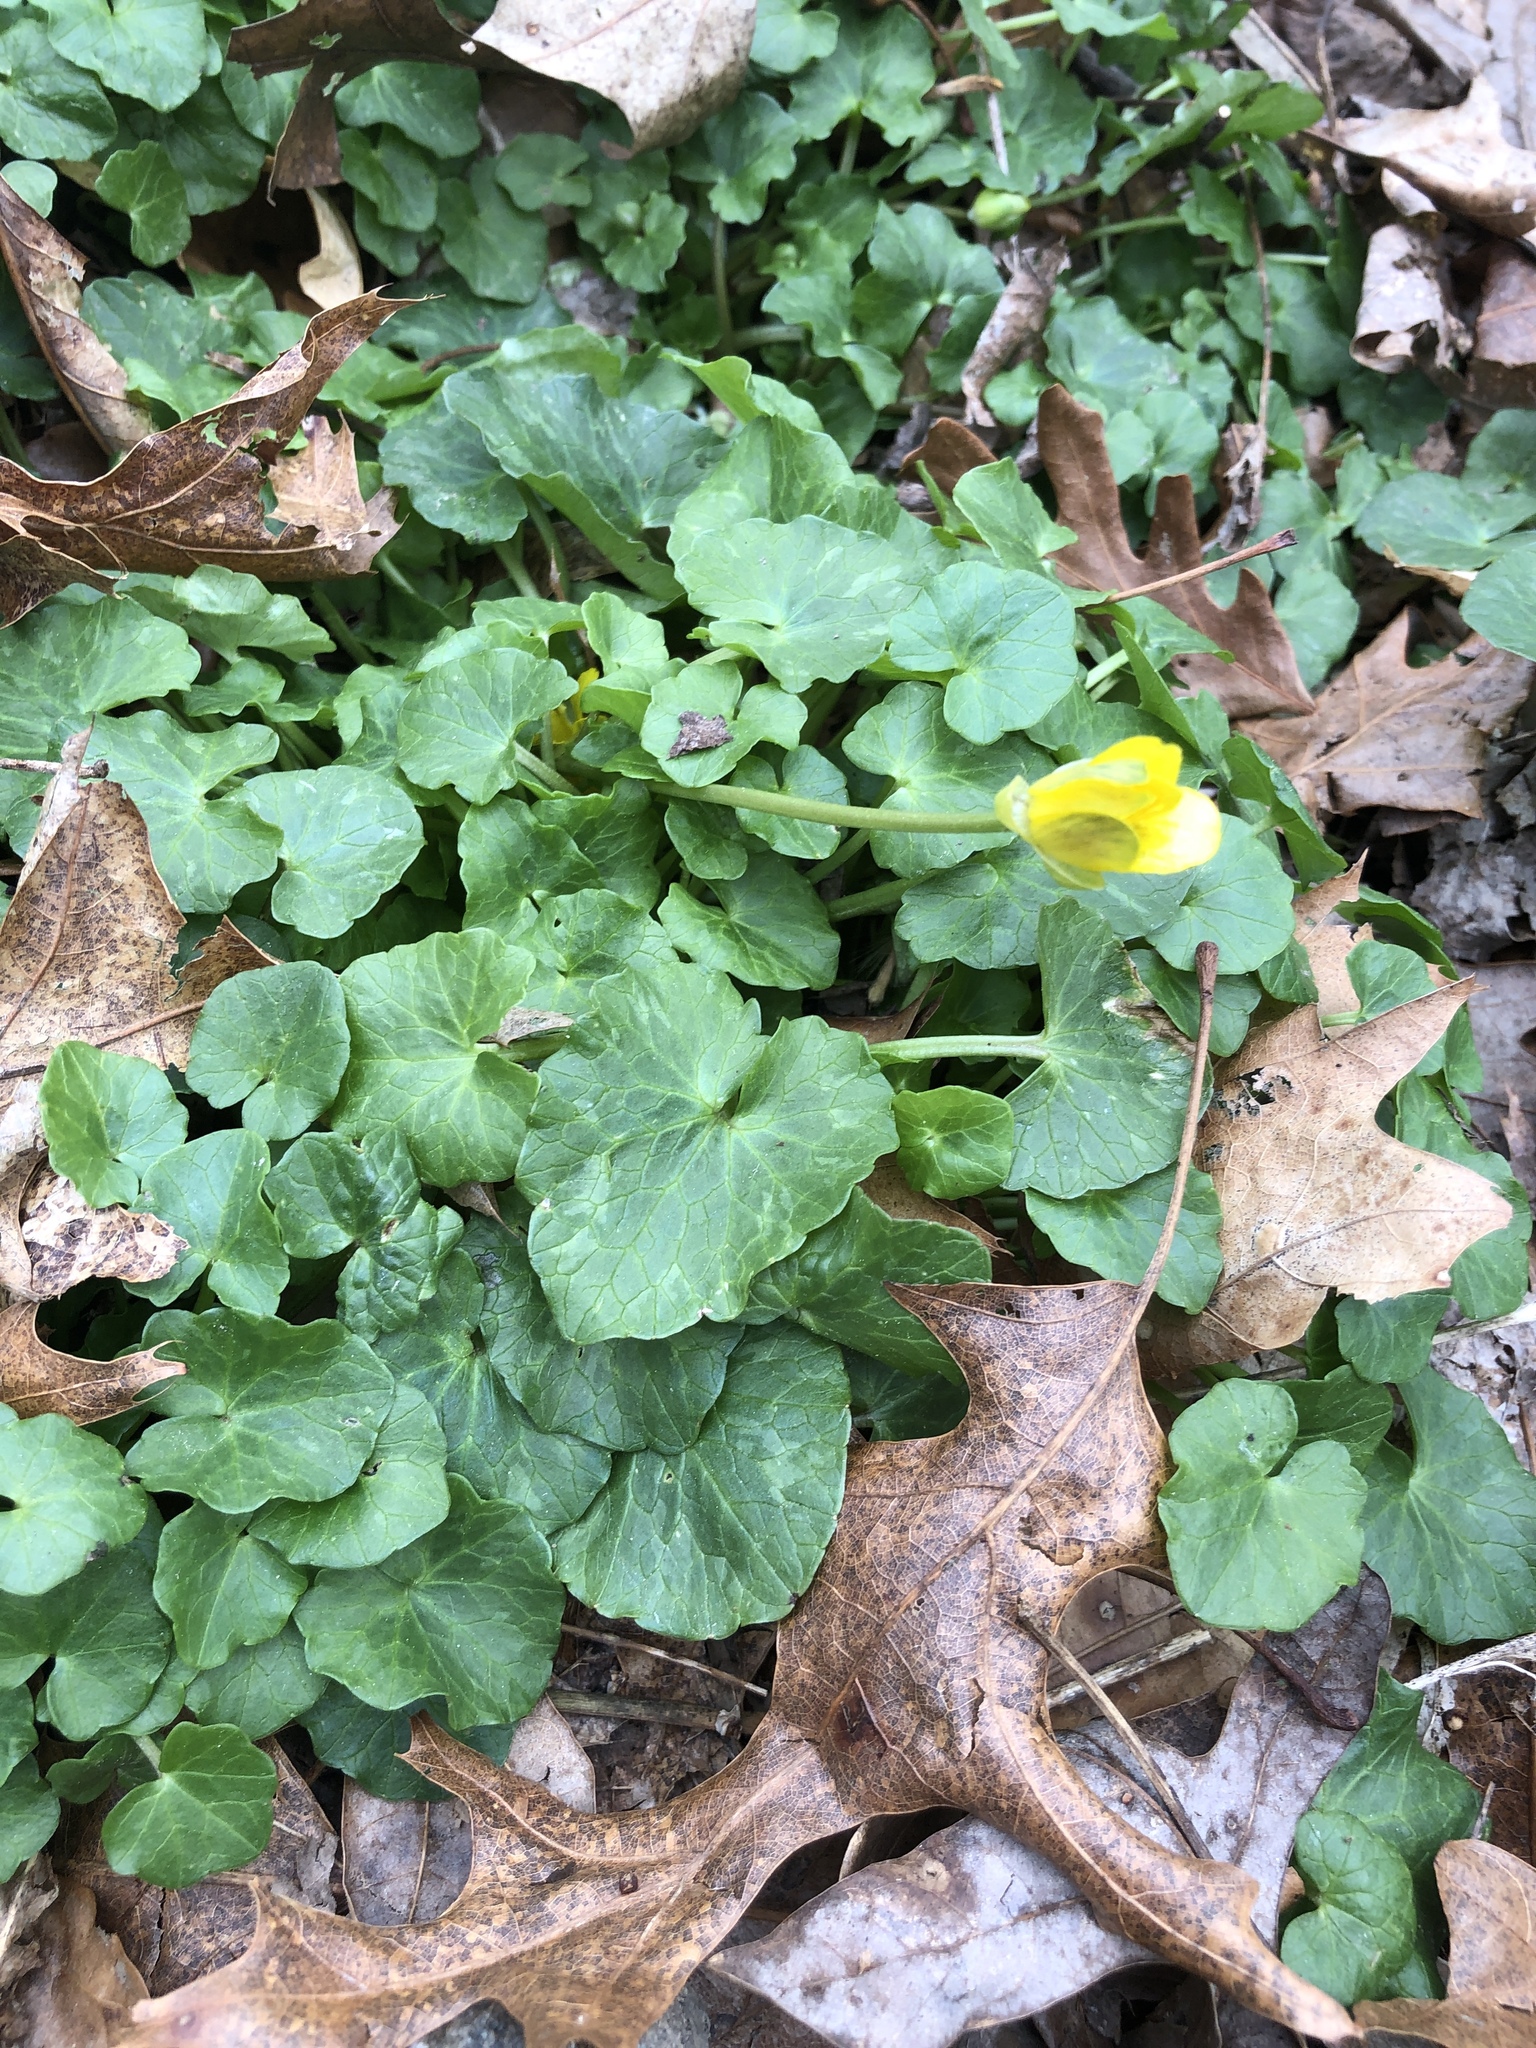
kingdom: Plantae
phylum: Tracheophyta
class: Magnoliopsida
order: Ranunculales
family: Ranunculaceae
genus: Ficaria
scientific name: Ficaria verna
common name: Lesser celandine
